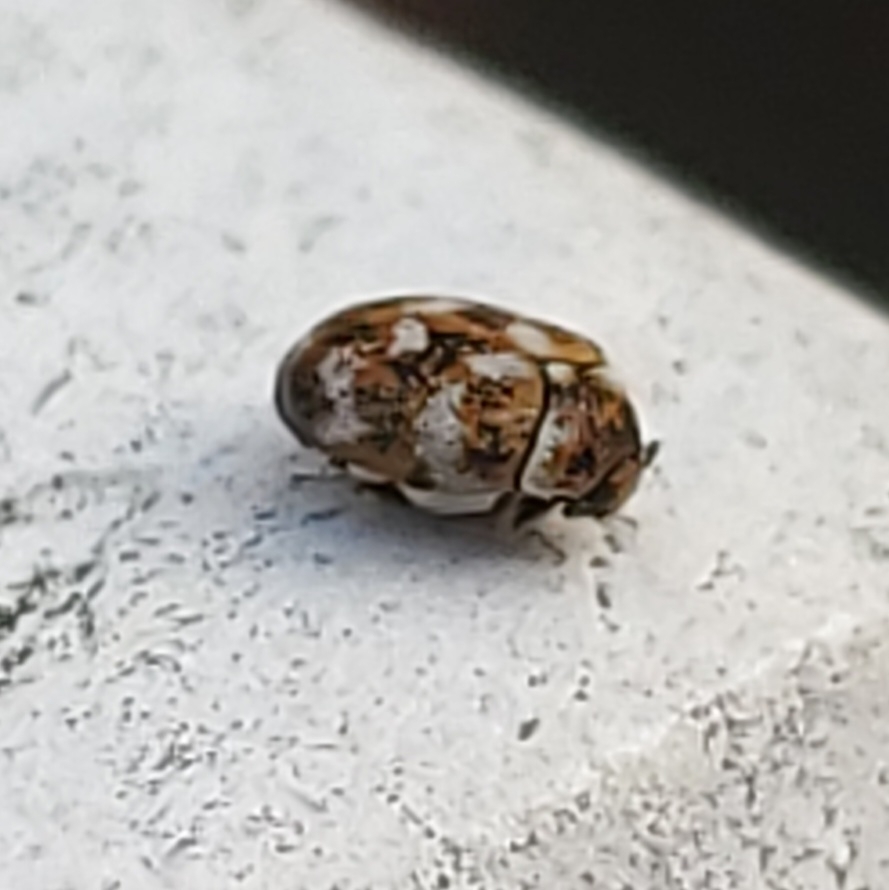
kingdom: Animalia
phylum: Arthropoda
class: Insecta
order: Coleoptera
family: Dermestidae
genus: Anthrenus
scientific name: Anthrenus verbasci
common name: Varied carpet beetle
